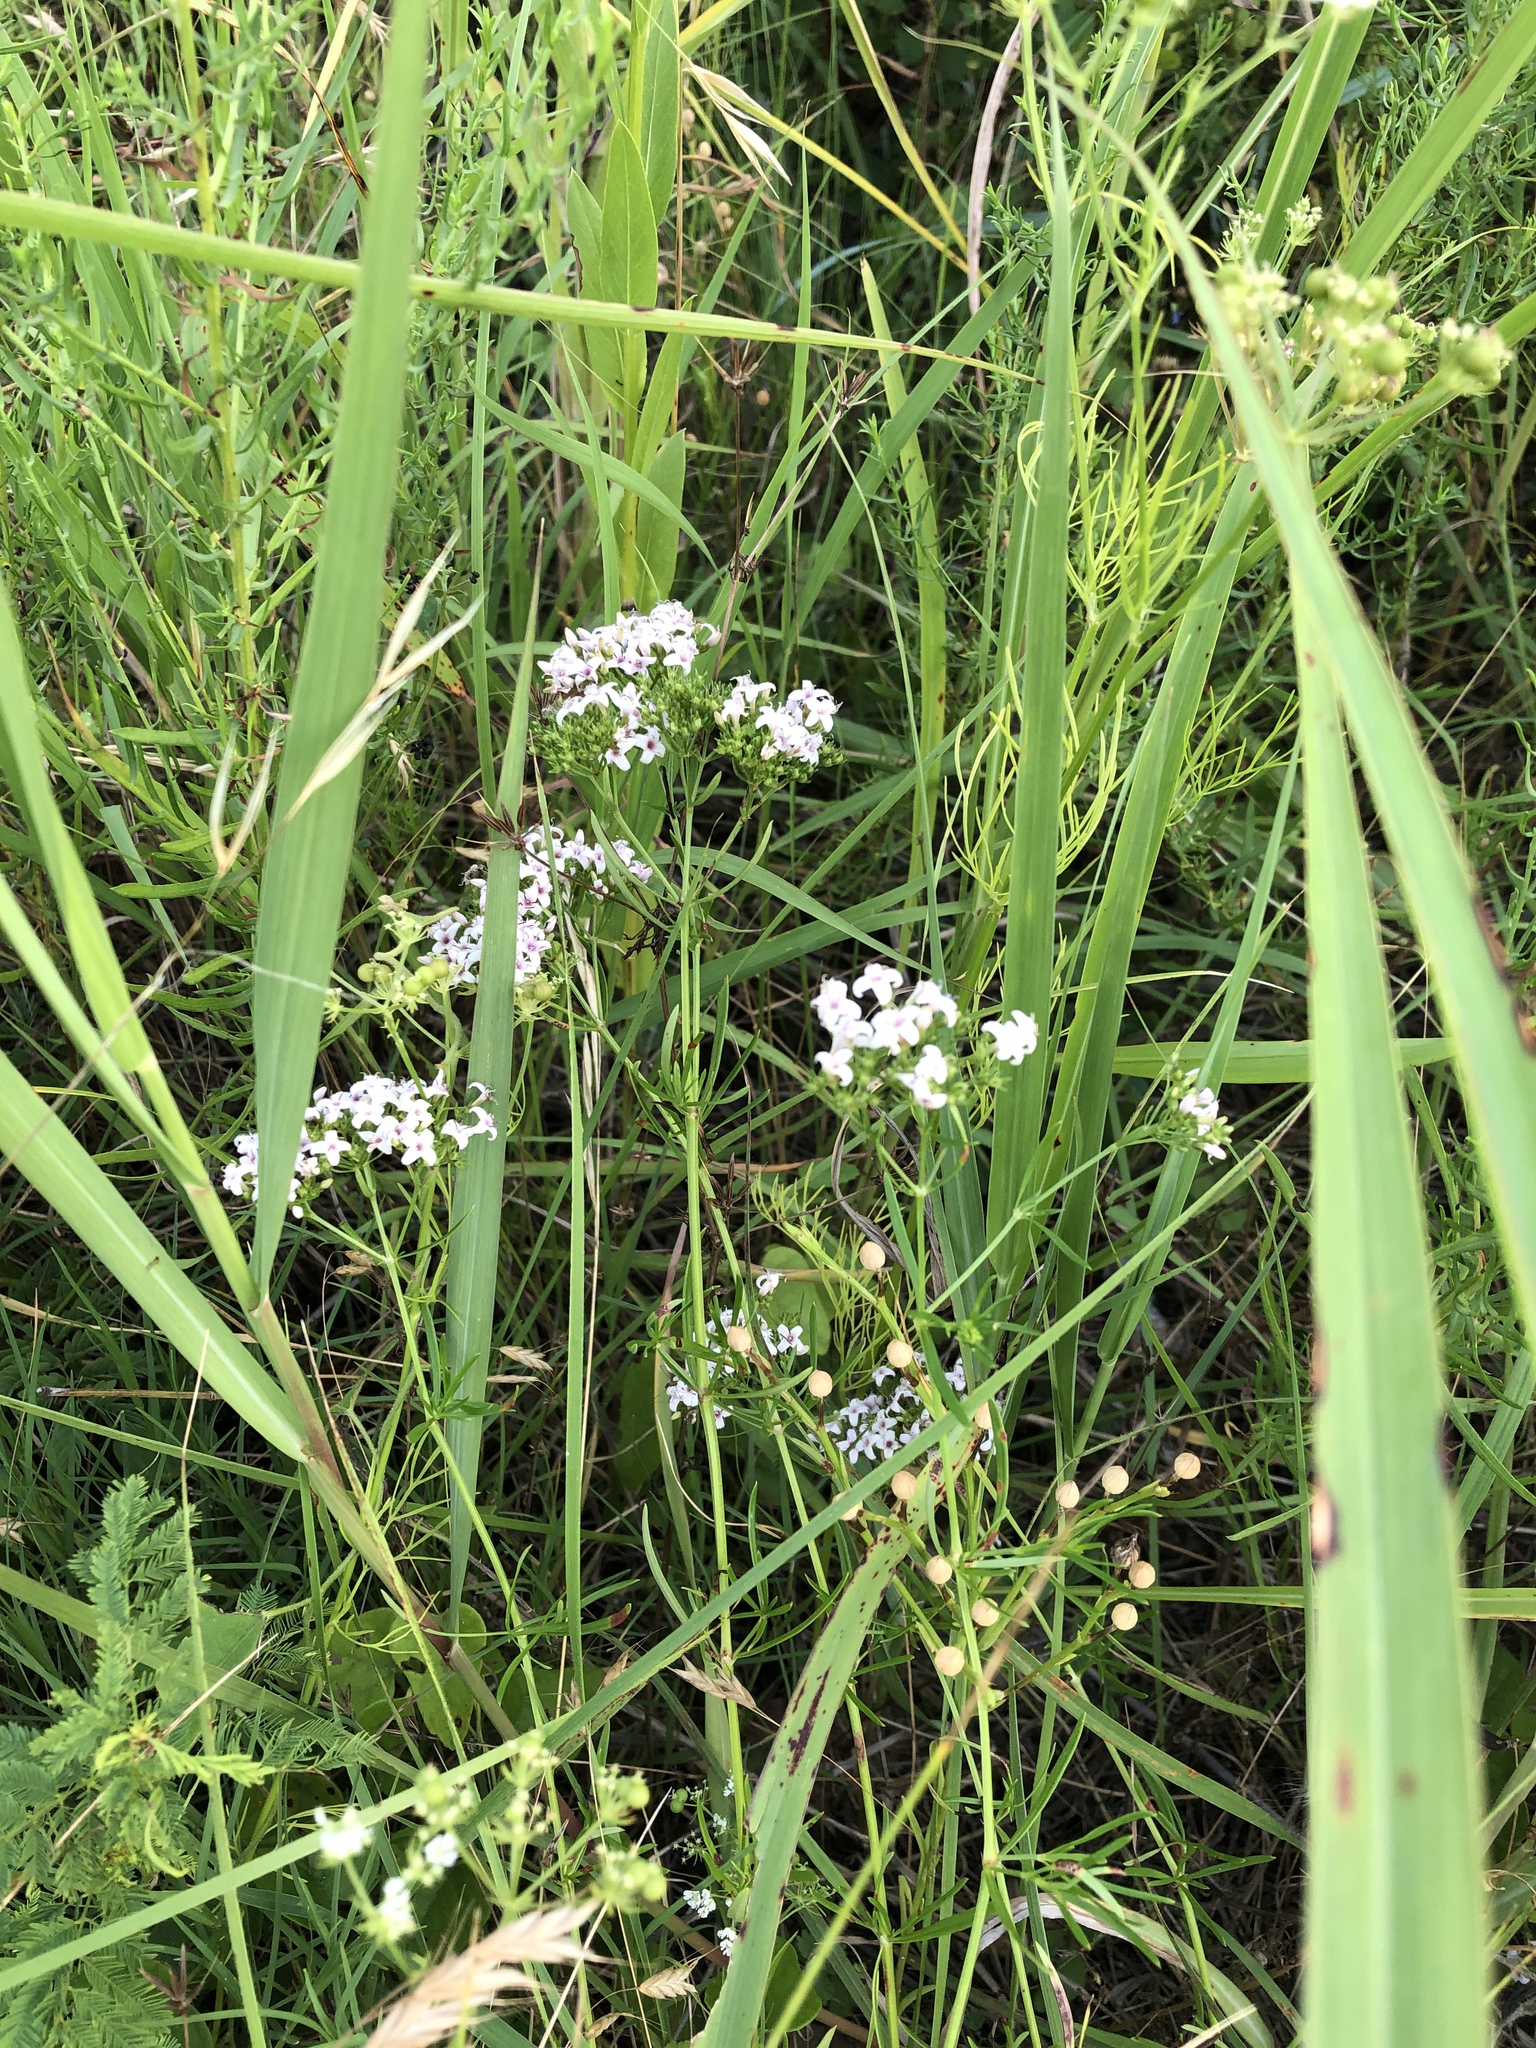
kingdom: Plantae
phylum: Tracheophyta
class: Magnoliopsida
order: Gentianales
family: Rubiaceae
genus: Stenaria
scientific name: Stenaria nigricans
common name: Diamondflowers
